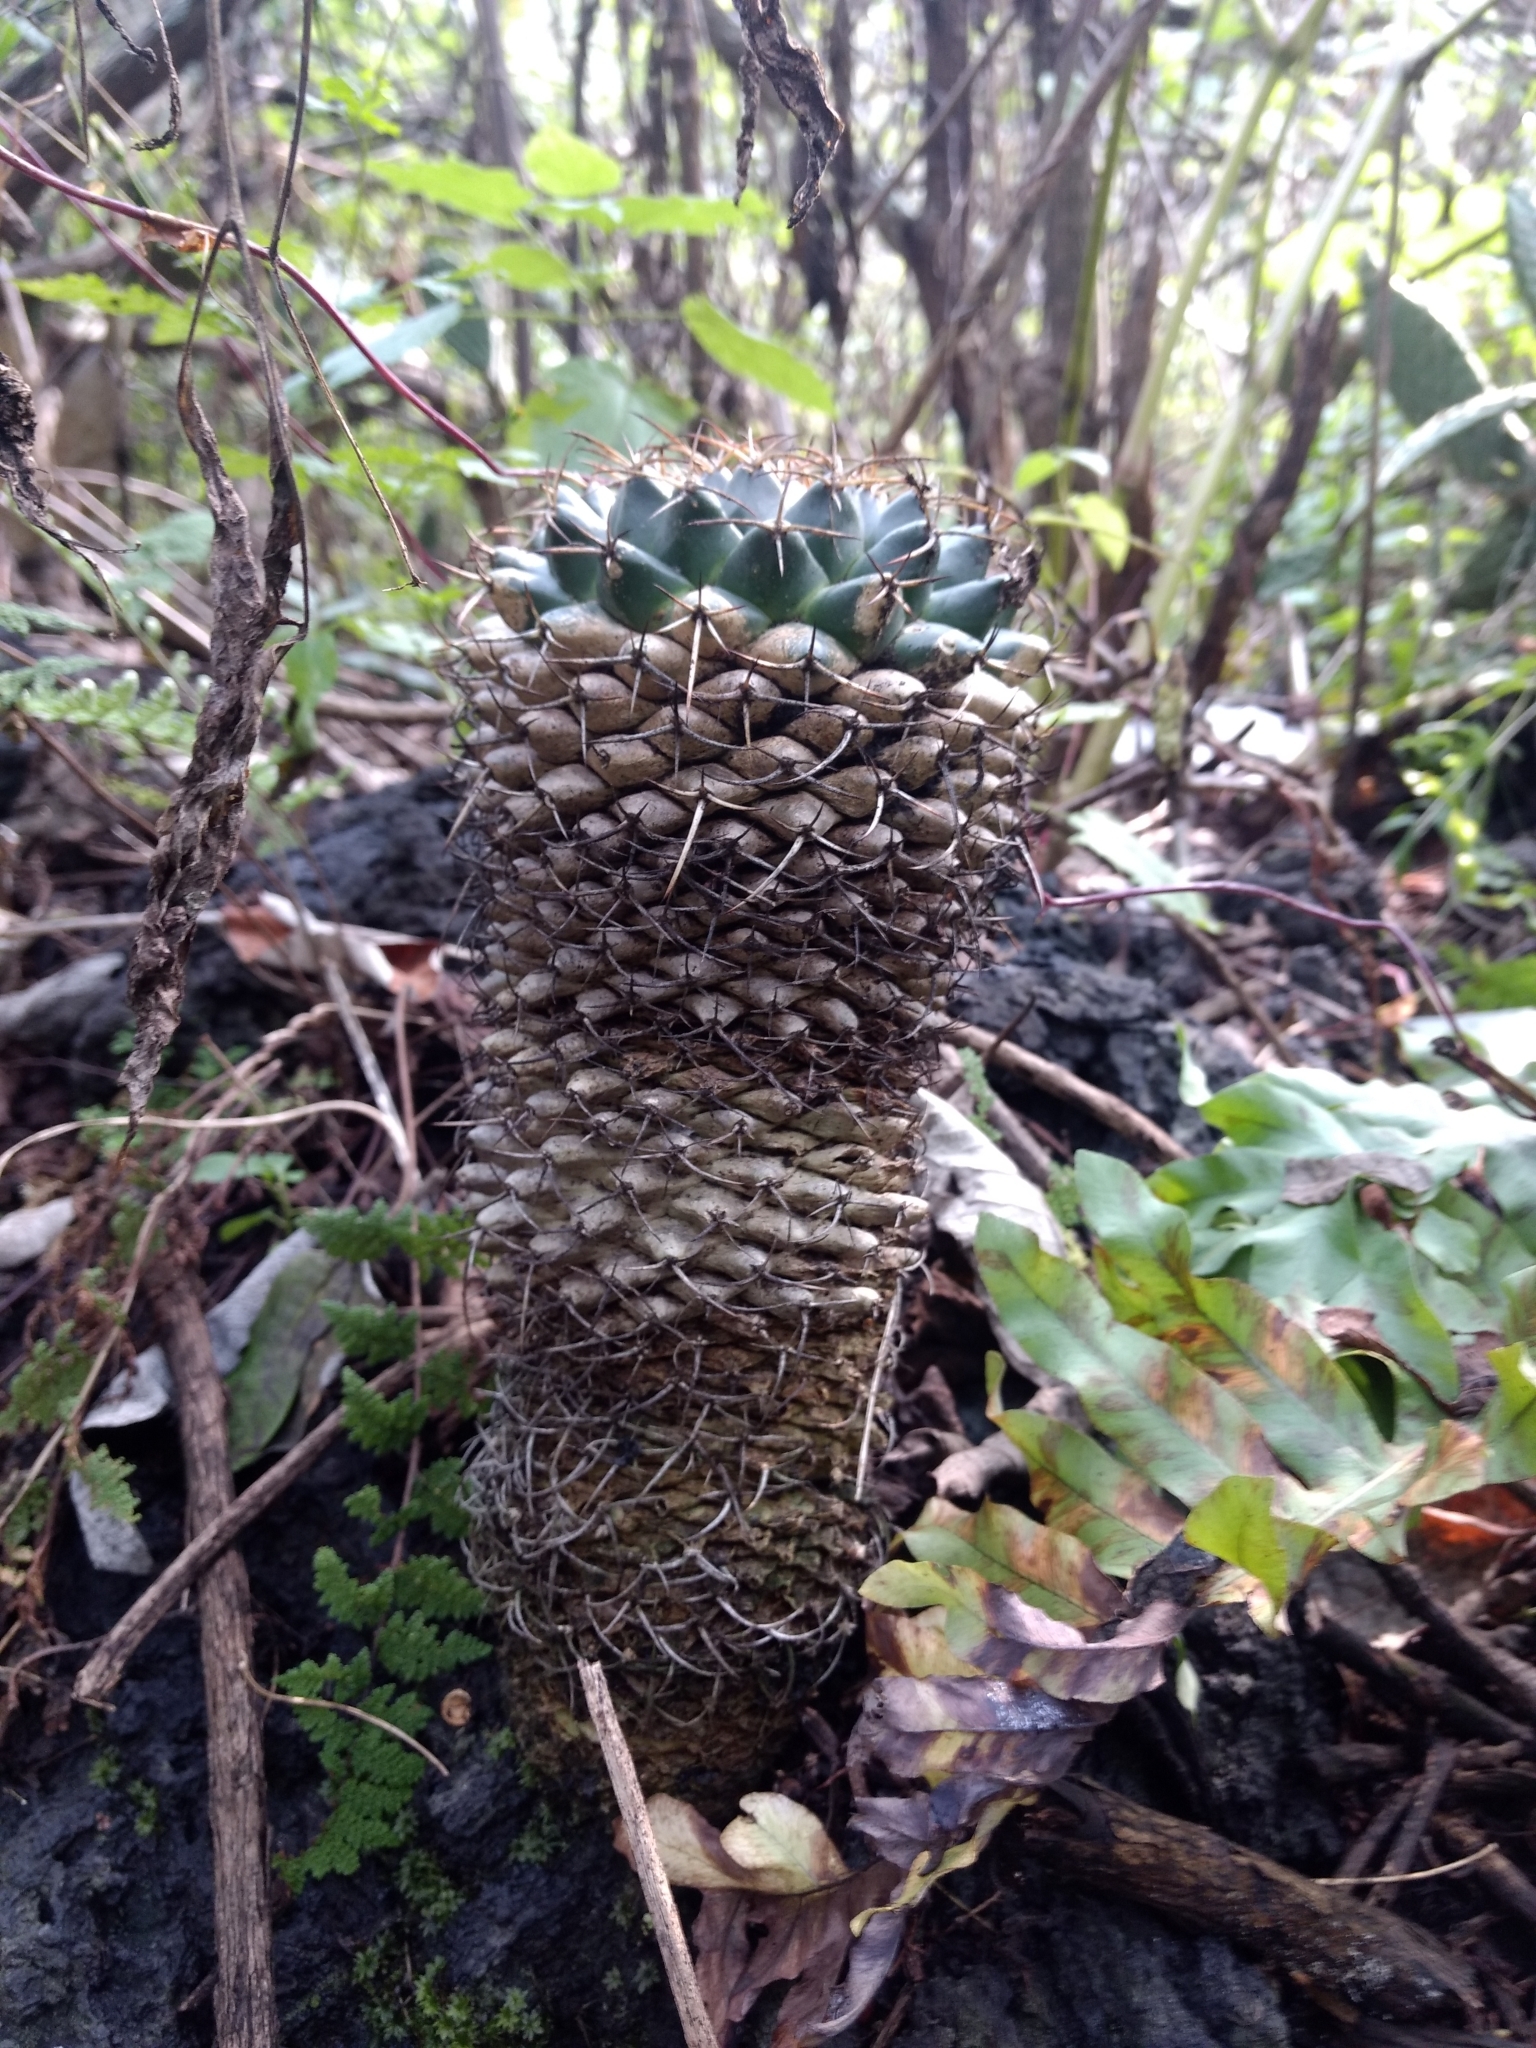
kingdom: Plantae
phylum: Tracheophyta
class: Magnoliopsida
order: Caryophyllales
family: Cactaceae
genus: Mammillaria
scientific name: Mammillaria magnimamma
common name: Mexican pincushion
